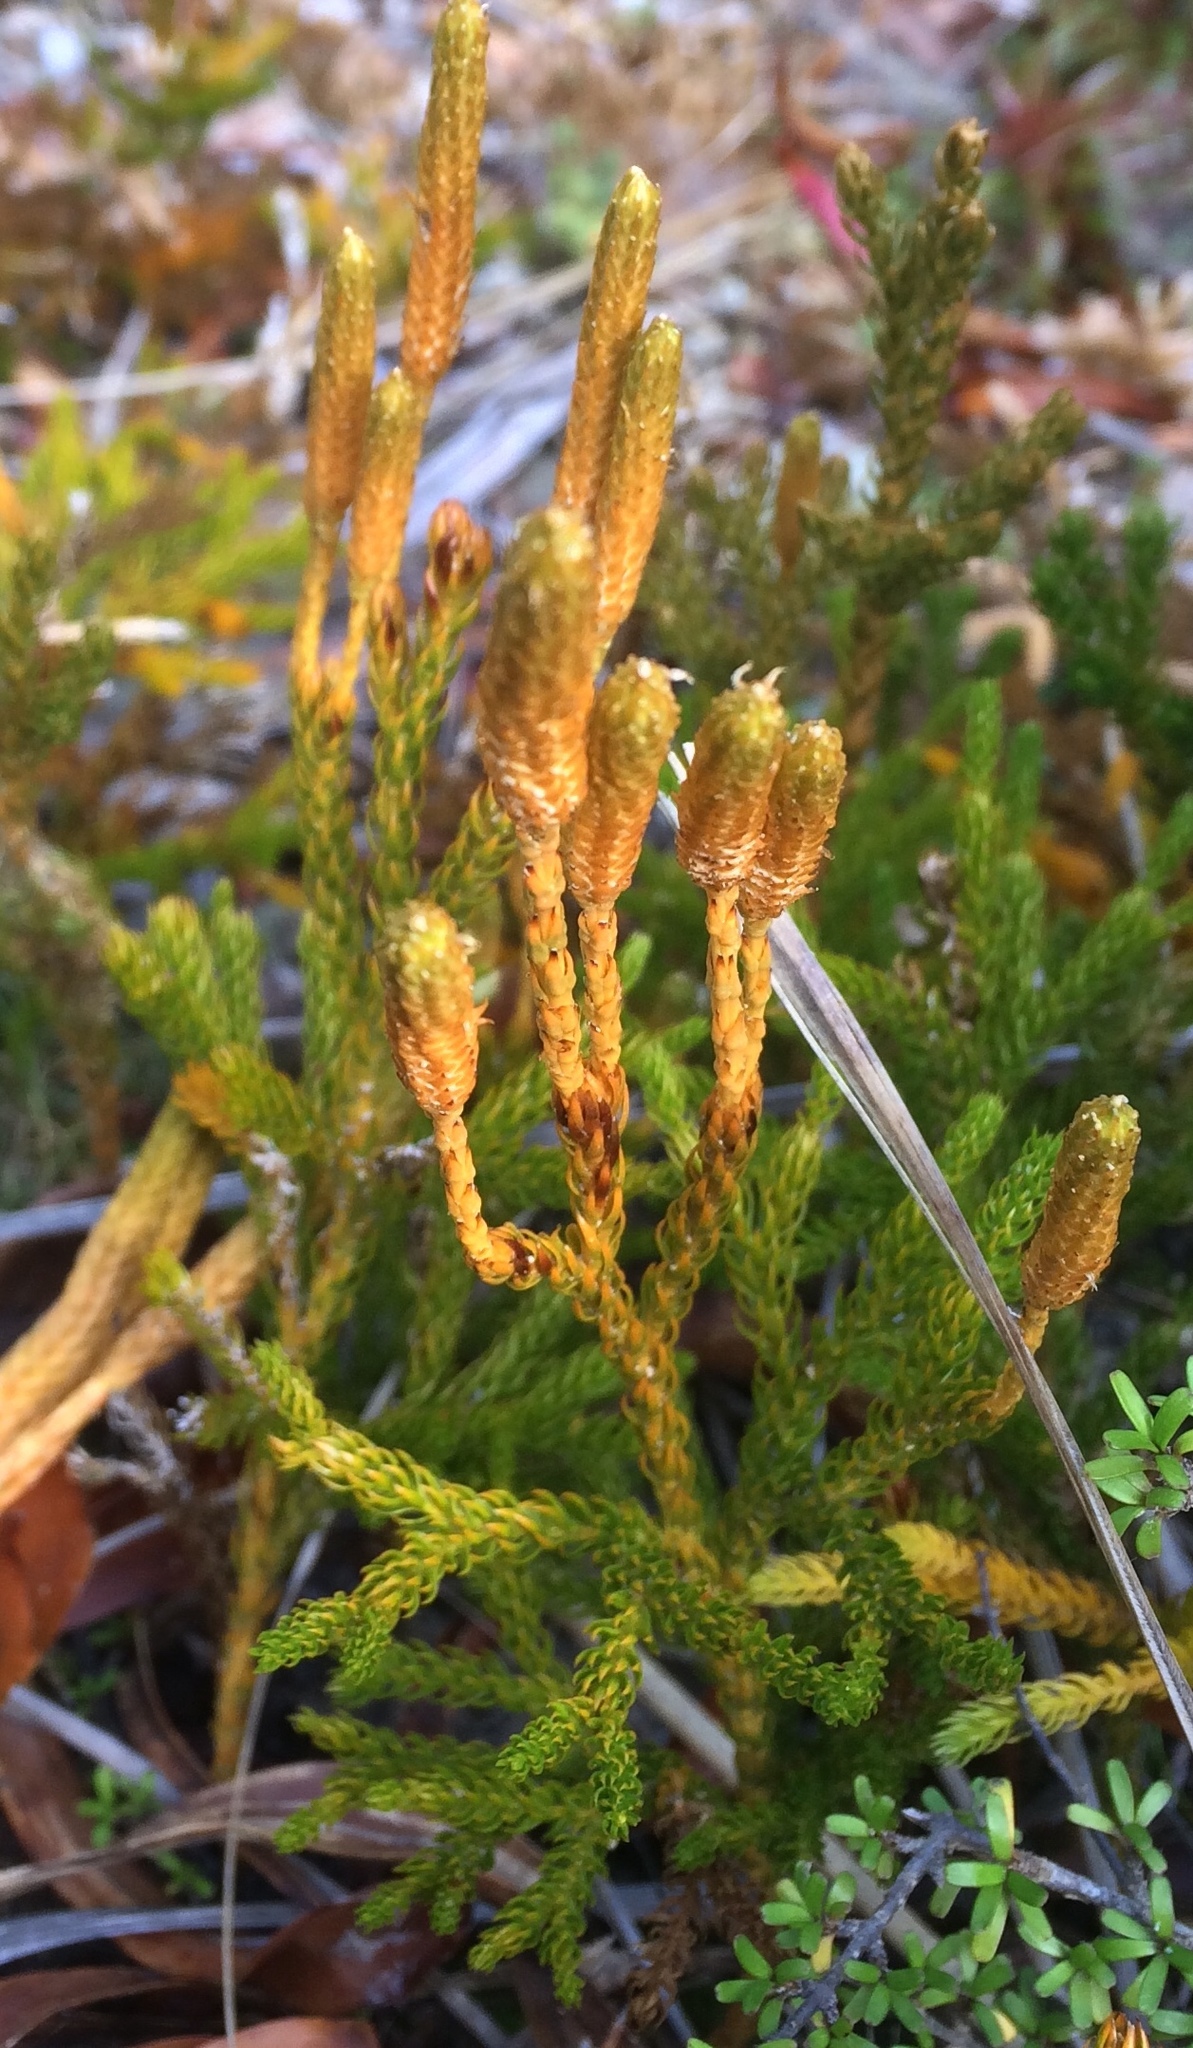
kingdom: Plantae
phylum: Tracheophyta
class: Lycopodiopsida
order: Lycopodiales
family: Lycopodiaceae
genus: Austrolycopodium
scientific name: Austrolycopodium fastigiatum
